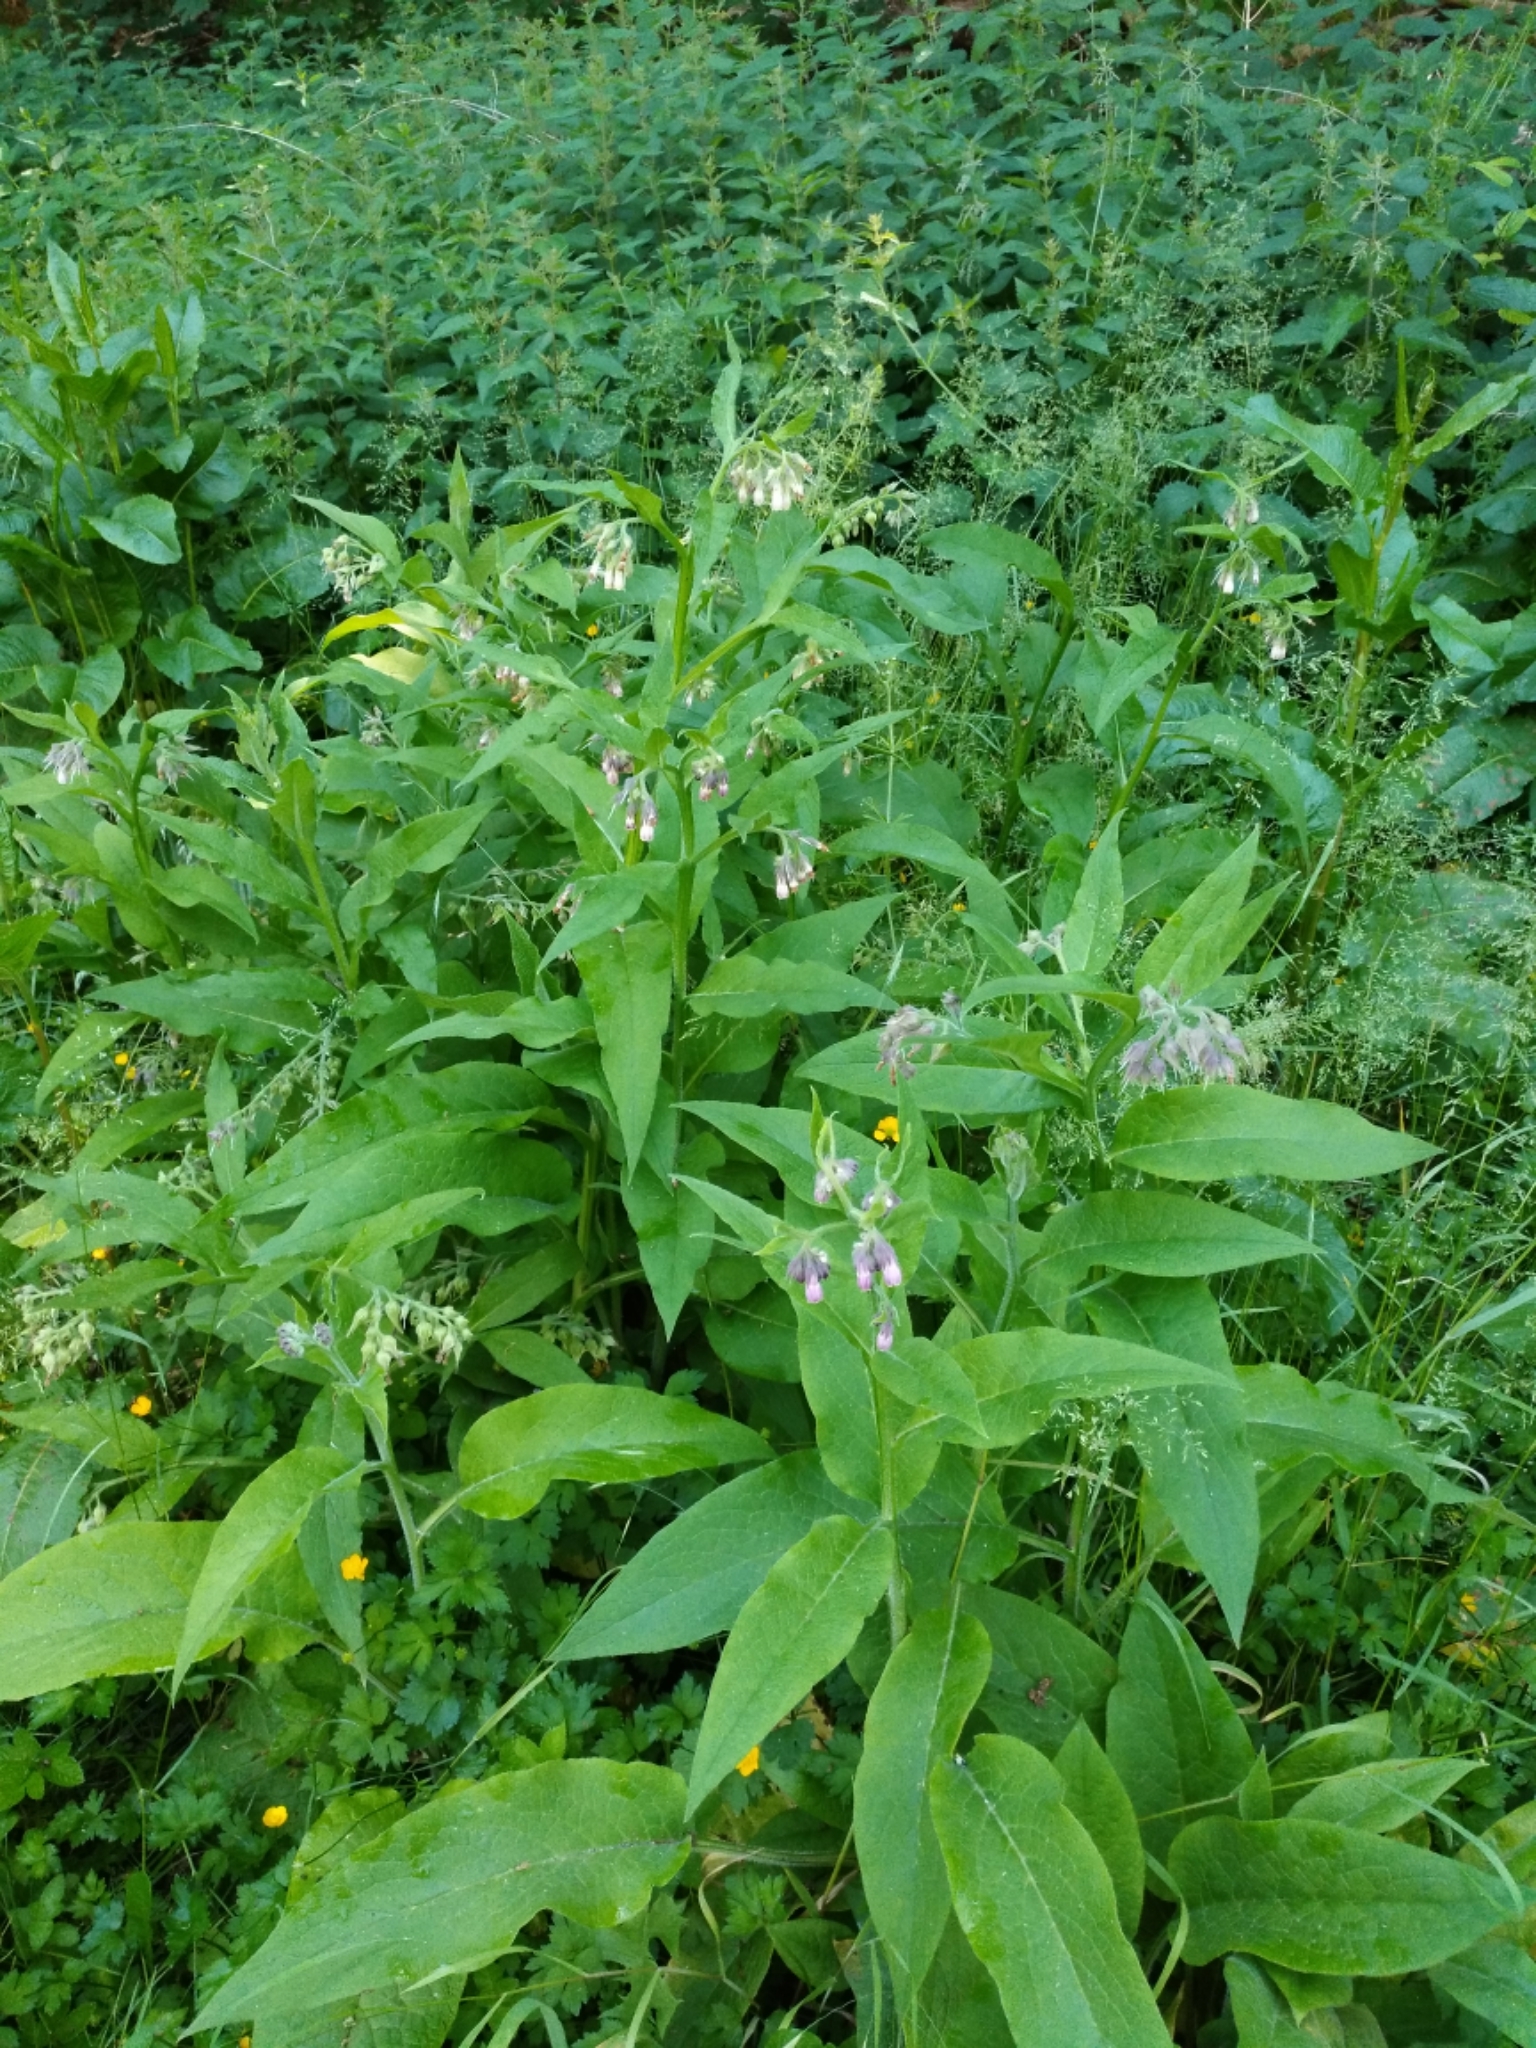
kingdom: Plantae
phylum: Tracheophyta
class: Magnoliopsida
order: Boraginales
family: Boraginaceae
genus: Symphytum
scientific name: Symphytum officinale
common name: Common comfrey
